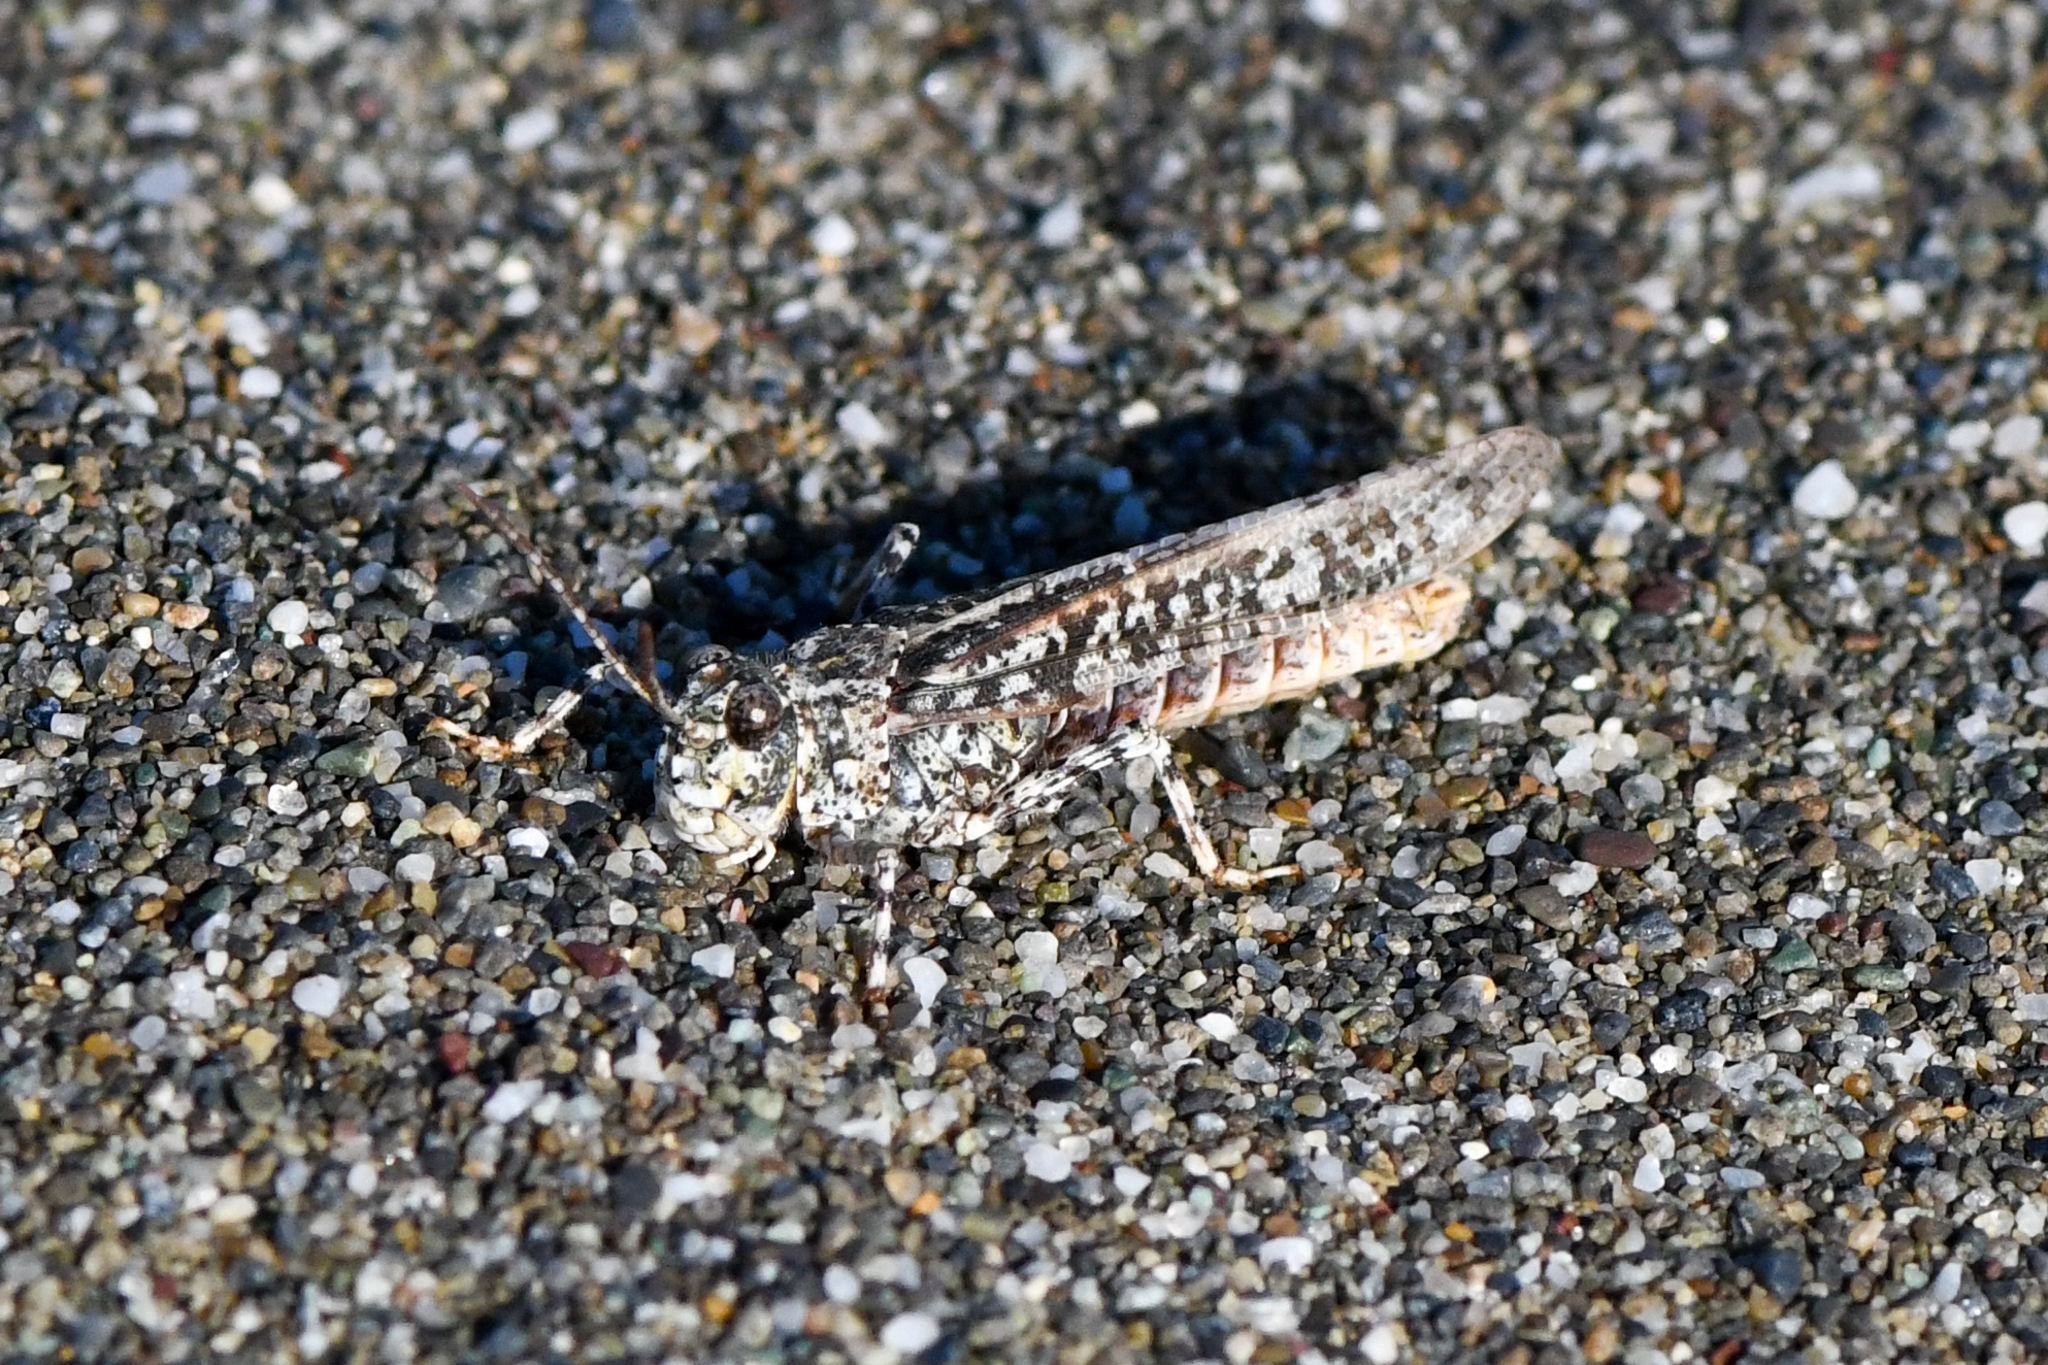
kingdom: Animalia
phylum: Arthropoda
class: Insecta
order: Orthoptera
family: Acrididae
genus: Microtes
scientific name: Microtes helferi
